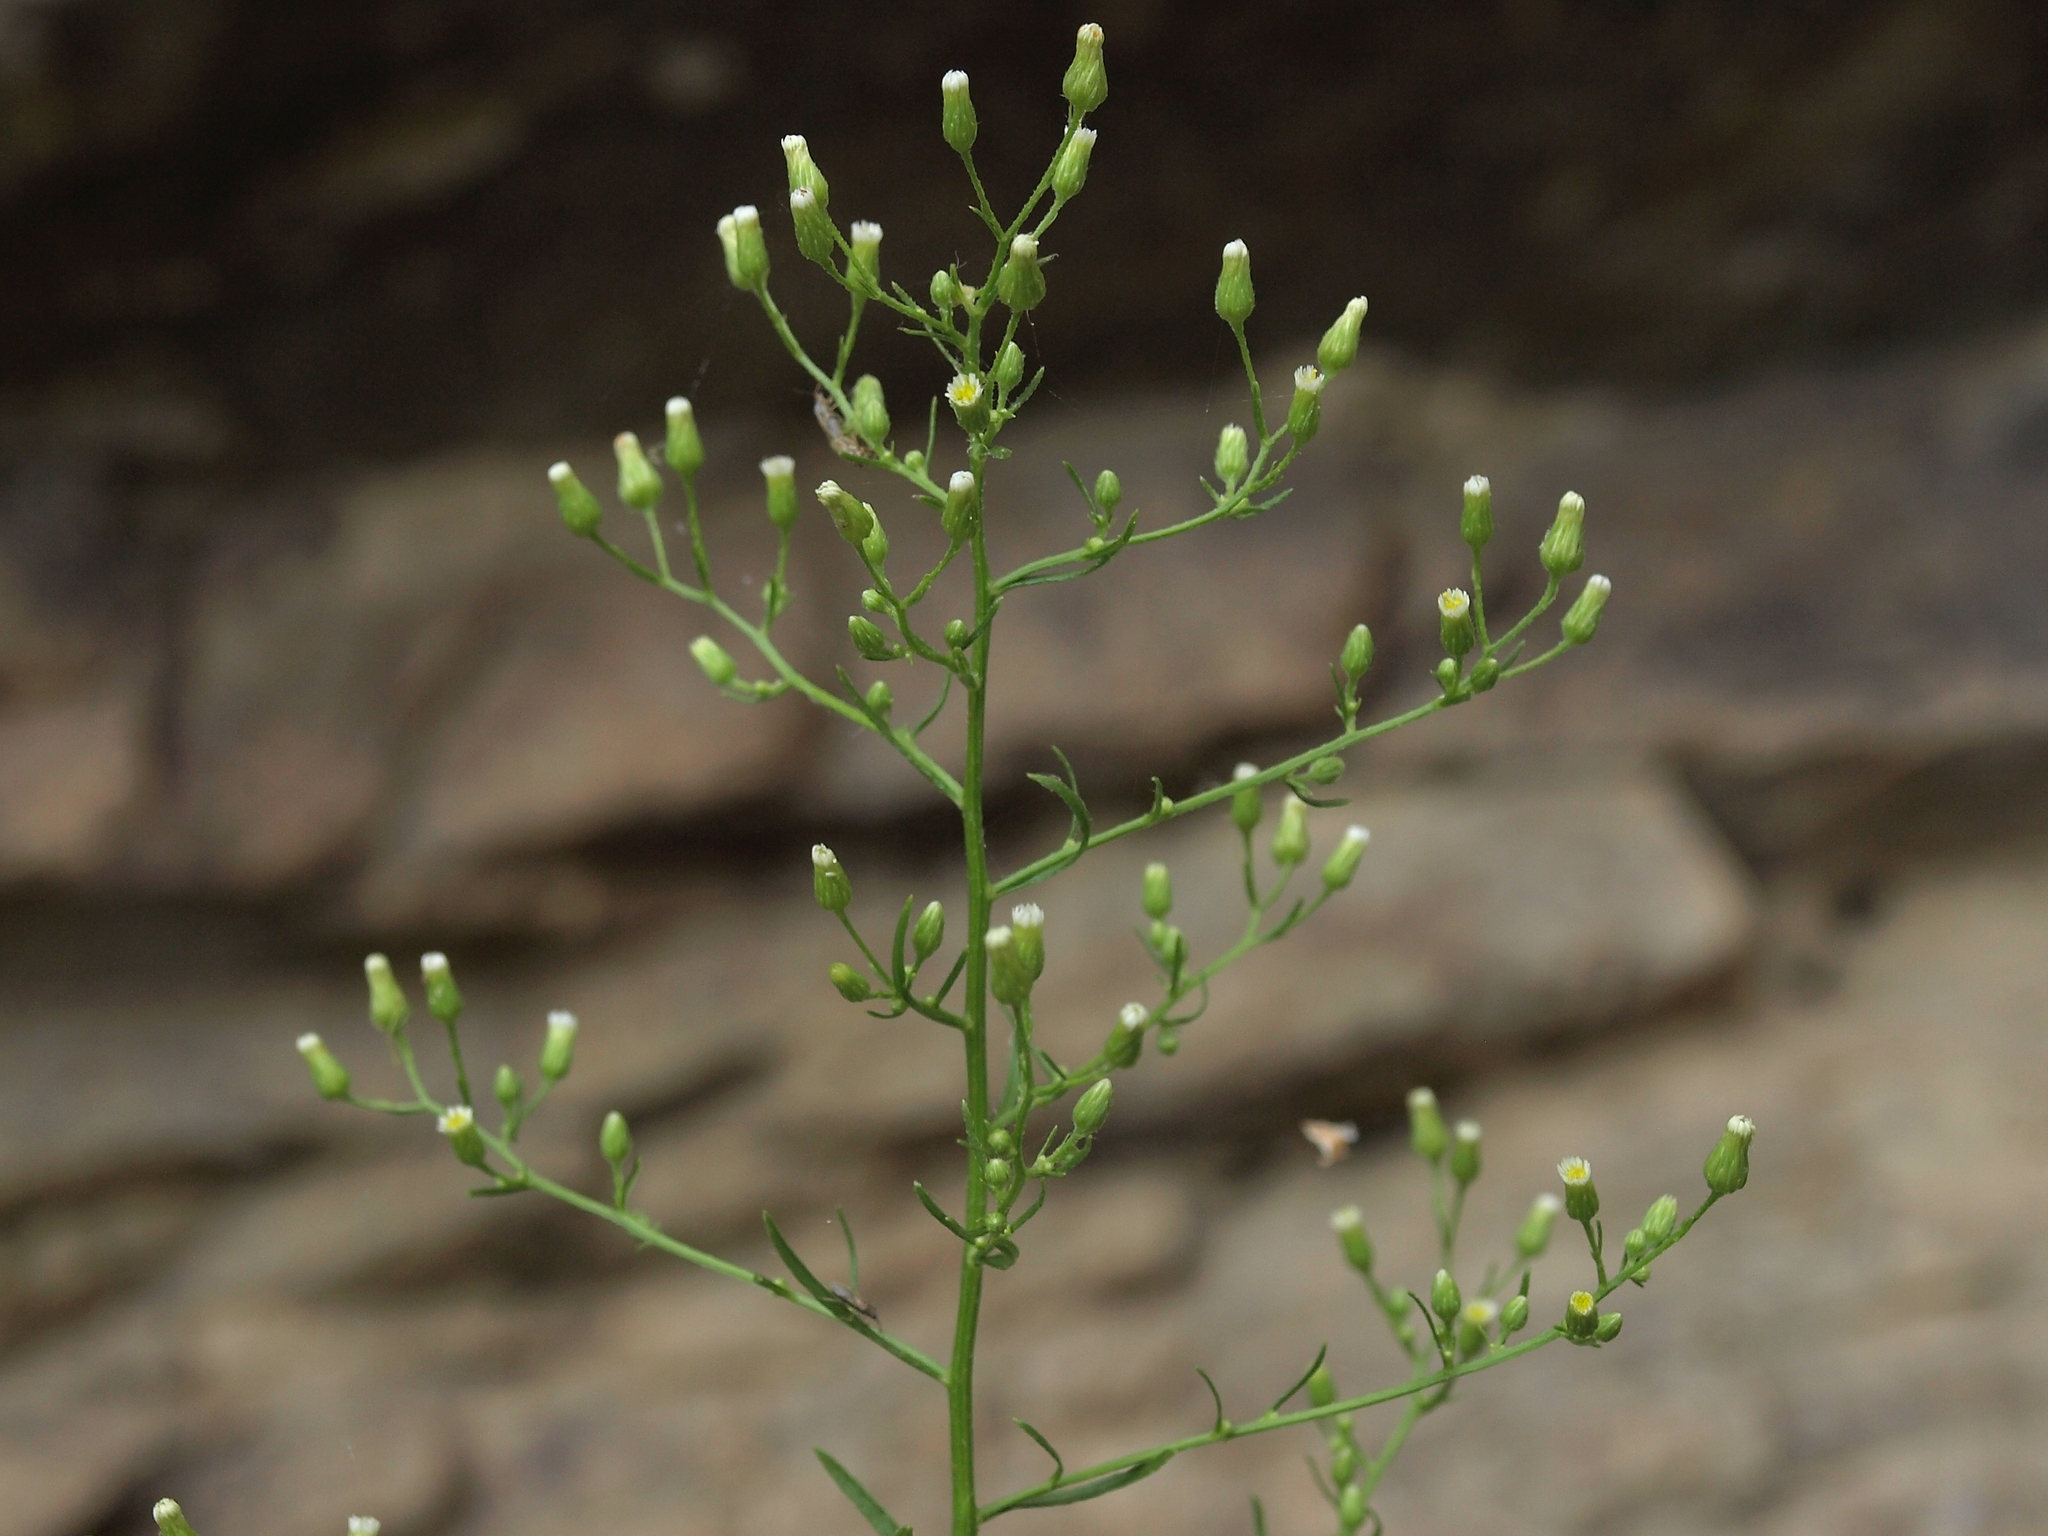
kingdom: Plantae
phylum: Tracheophyta
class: Magnoliopsida
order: Asterales
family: Asteraceae
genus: Erigeron
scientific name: Erigeron canadensis
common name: Canadian fleabane
